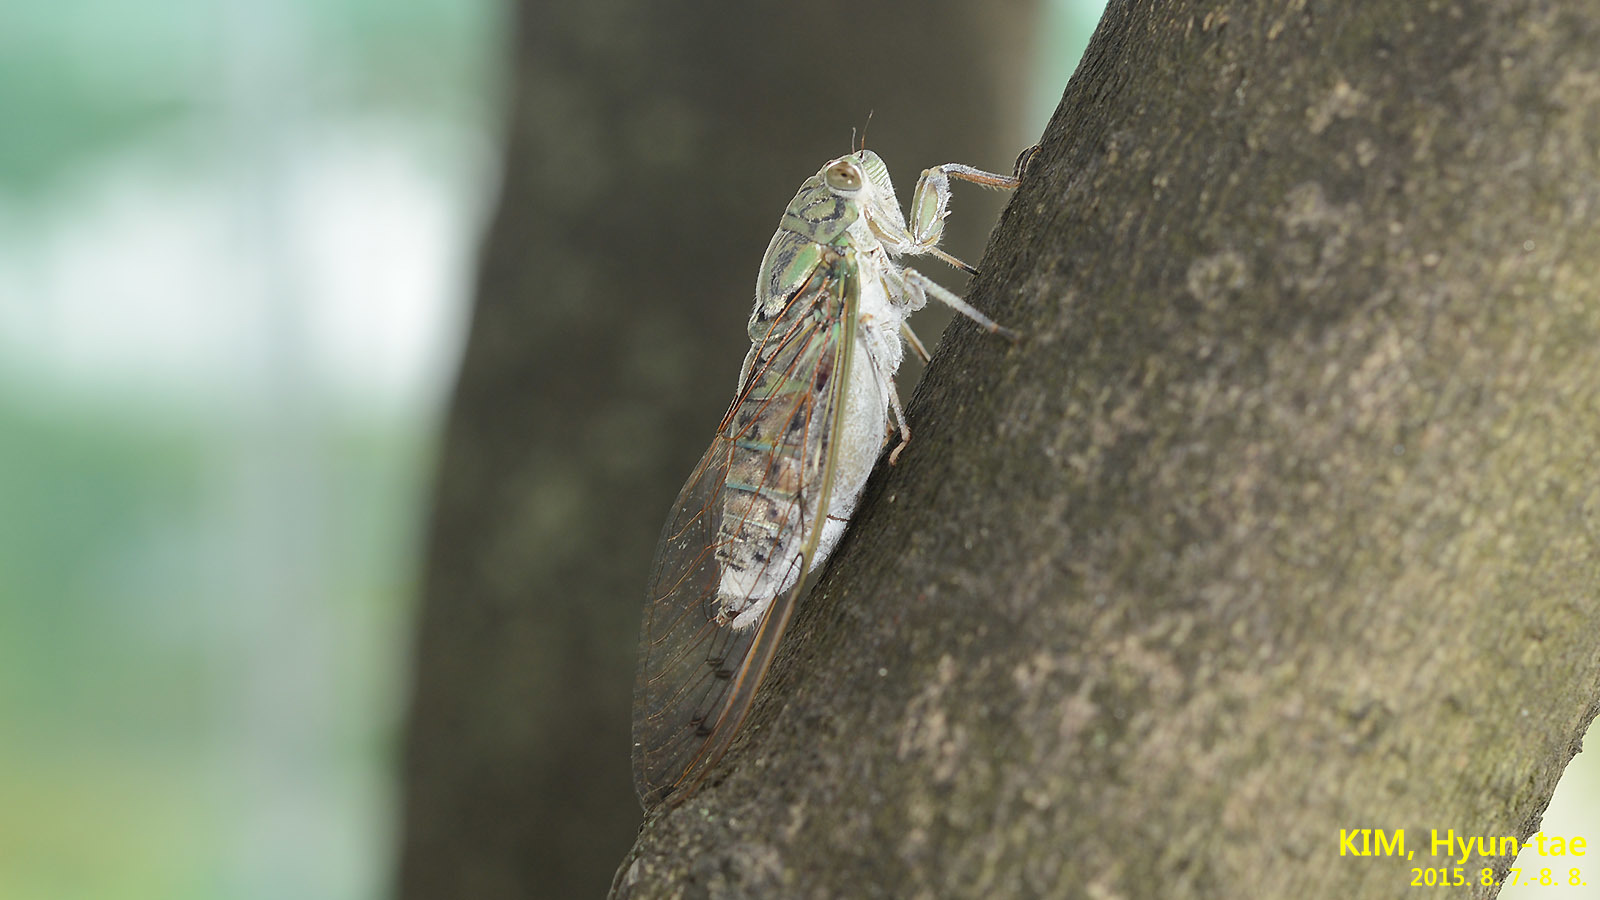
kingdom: Animalia
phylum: Arthropoda
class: Insecta
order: Hemiptera
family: Cicadidae
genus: Meimuna
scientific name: Meimuna mongolica
